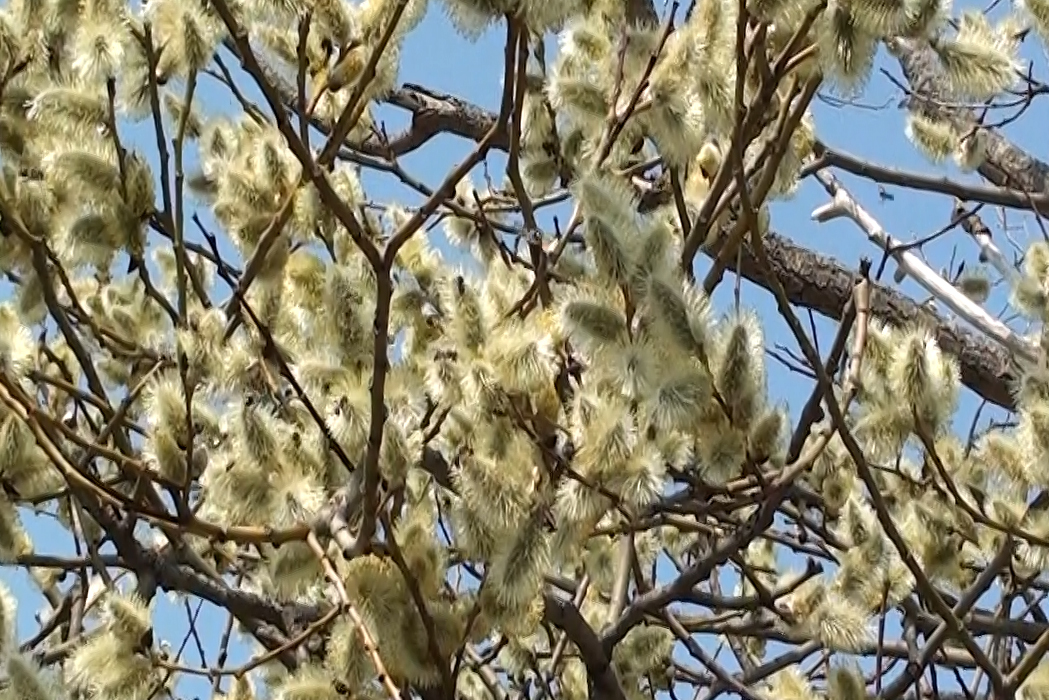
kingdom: Plantae
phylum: Tracheophyta
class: Magnoliopsida
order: Malpighiales
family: Salicaceae
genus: Salix
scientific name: Salix caprea
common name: Goat willow
